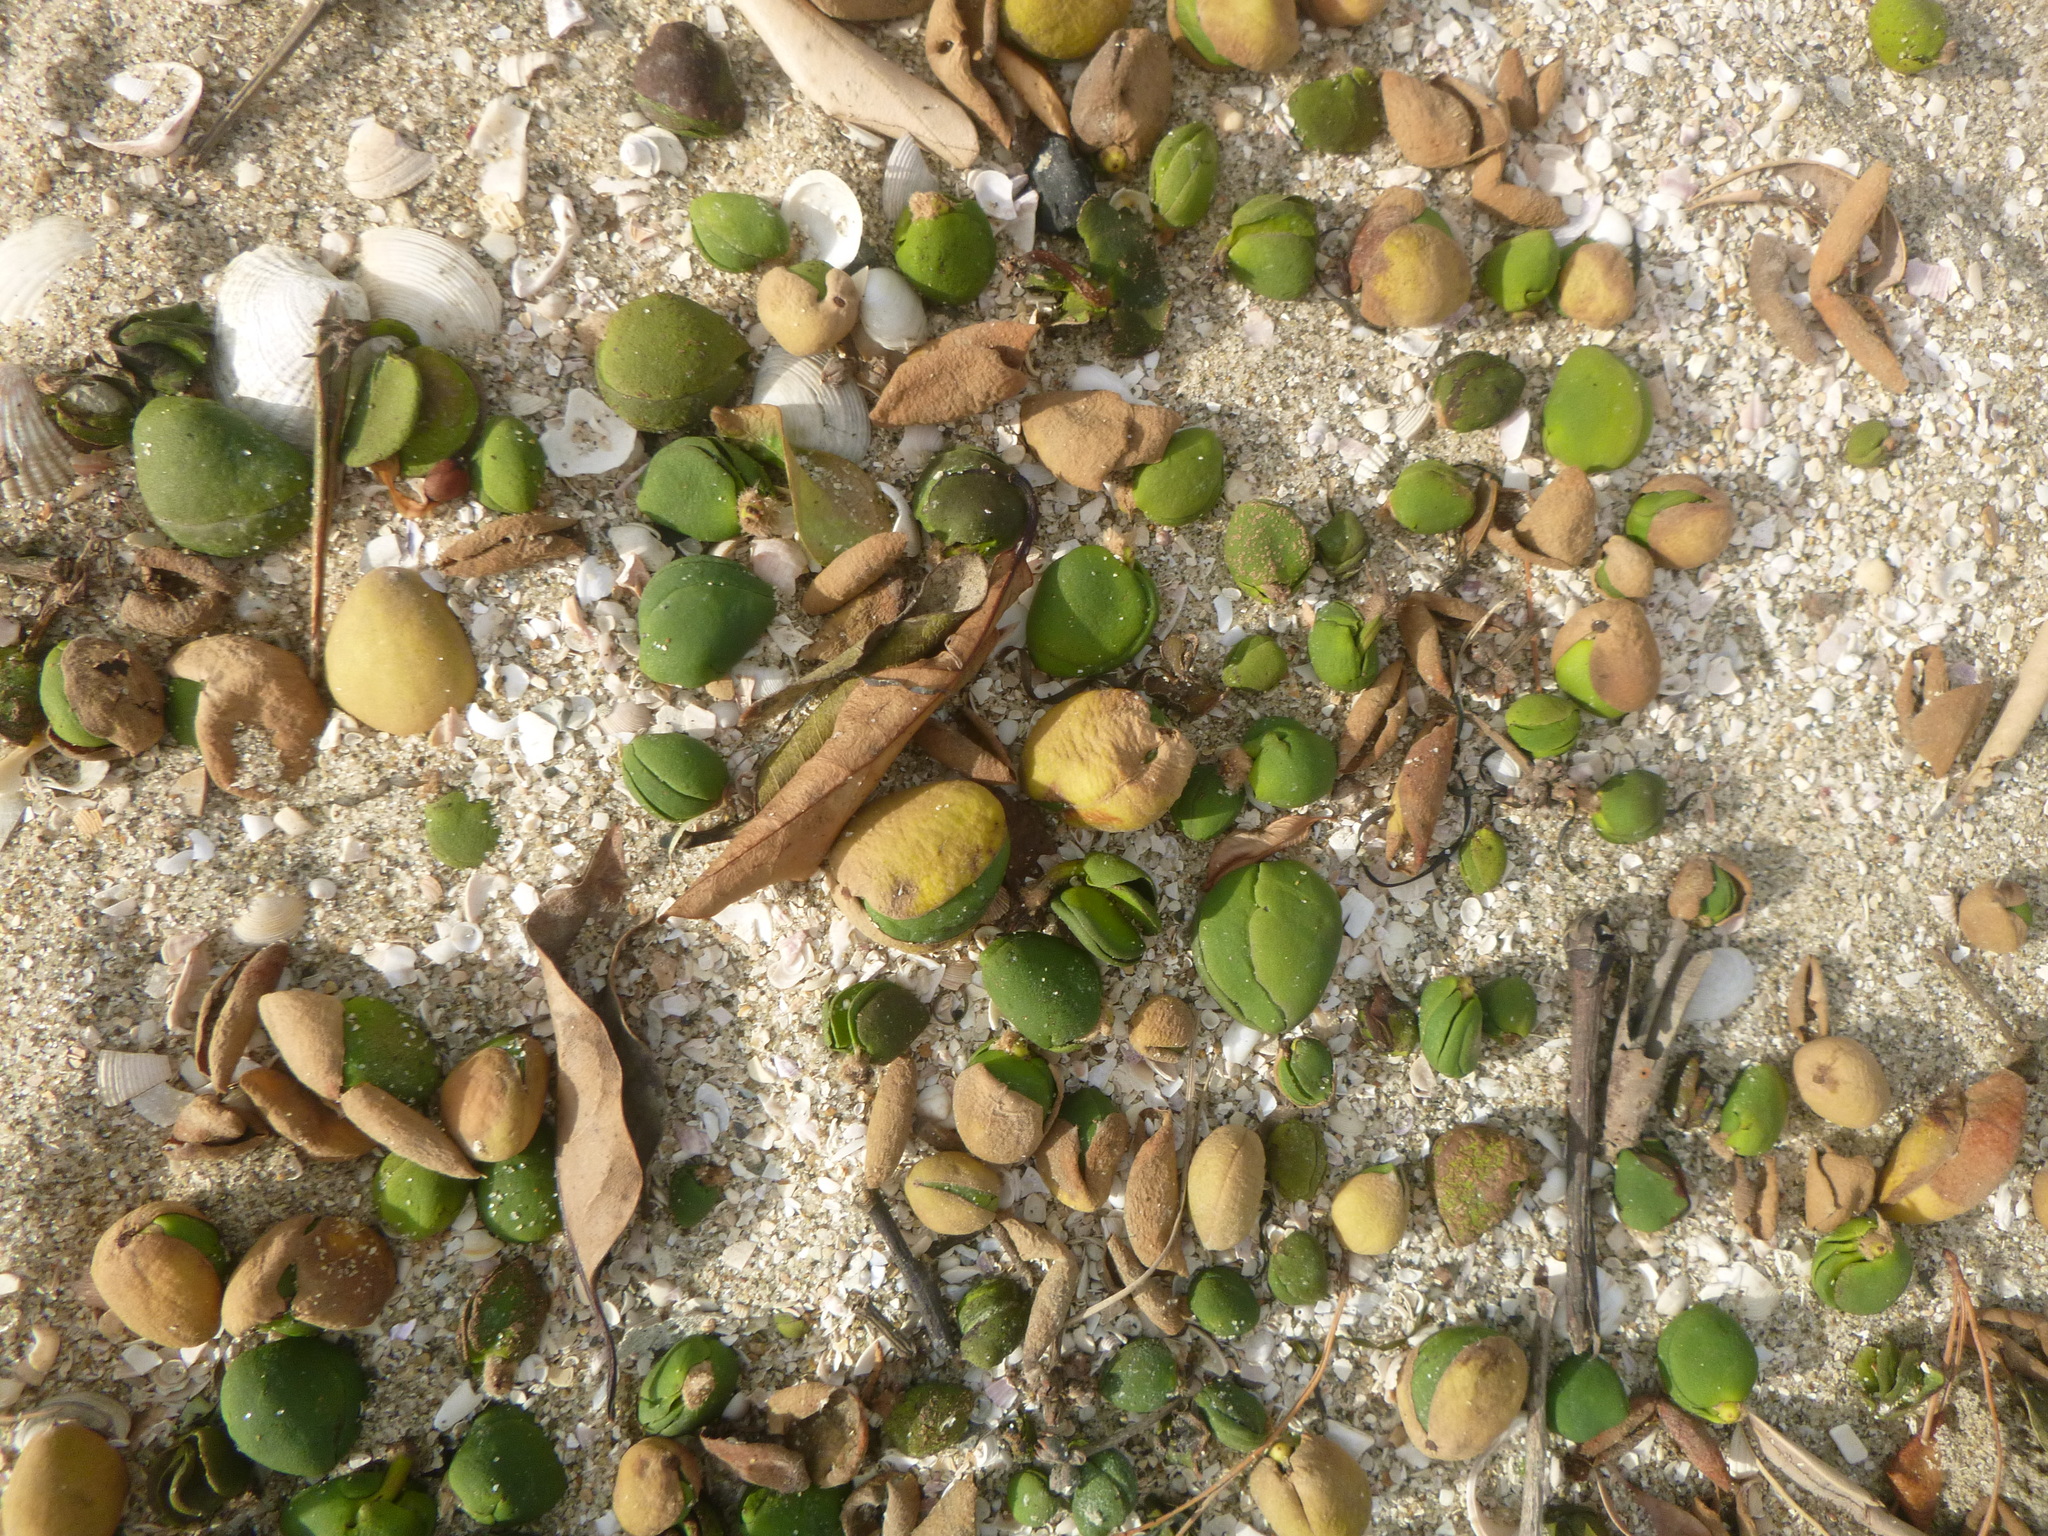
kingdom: Plantae
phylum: Tracheophyta
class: Magnoliopsida
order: Lamiales
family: Acanthaceae
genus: Avicennia
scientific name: Avicennia marina
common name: Gray mangrove
